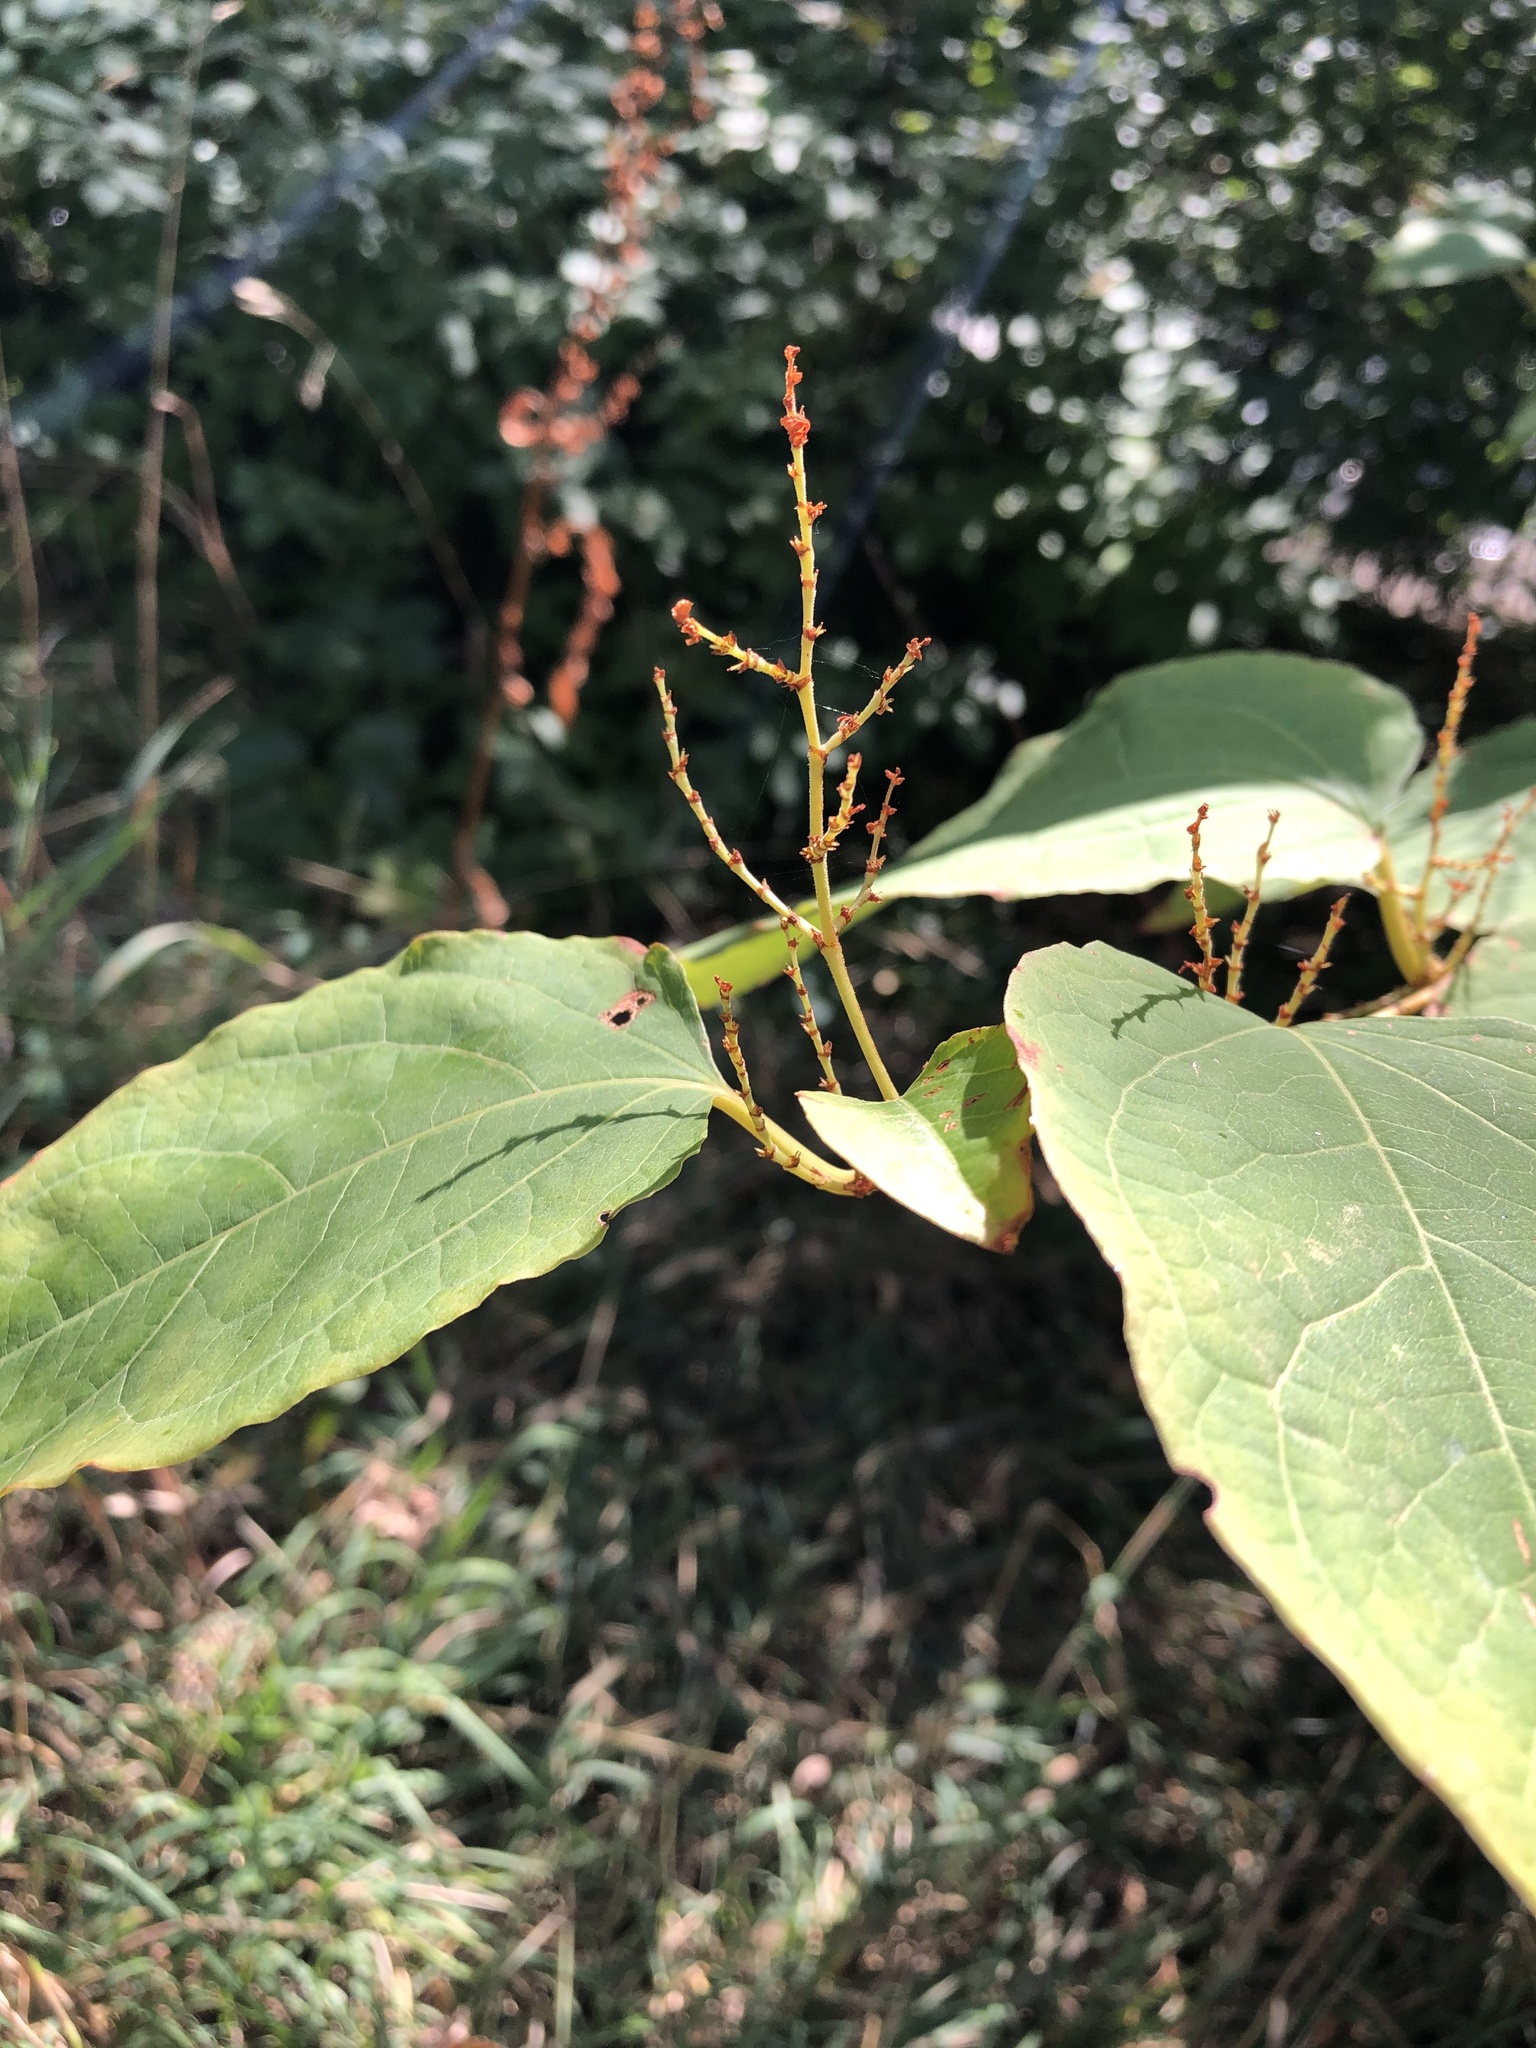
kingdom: Plantae
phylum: Tracheophyta
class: Magnoliopsida
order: Caryophyllales
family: Polygonaceae
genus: Reynoutria
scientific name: Reynoutria japonica
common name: Japanese knotweed
